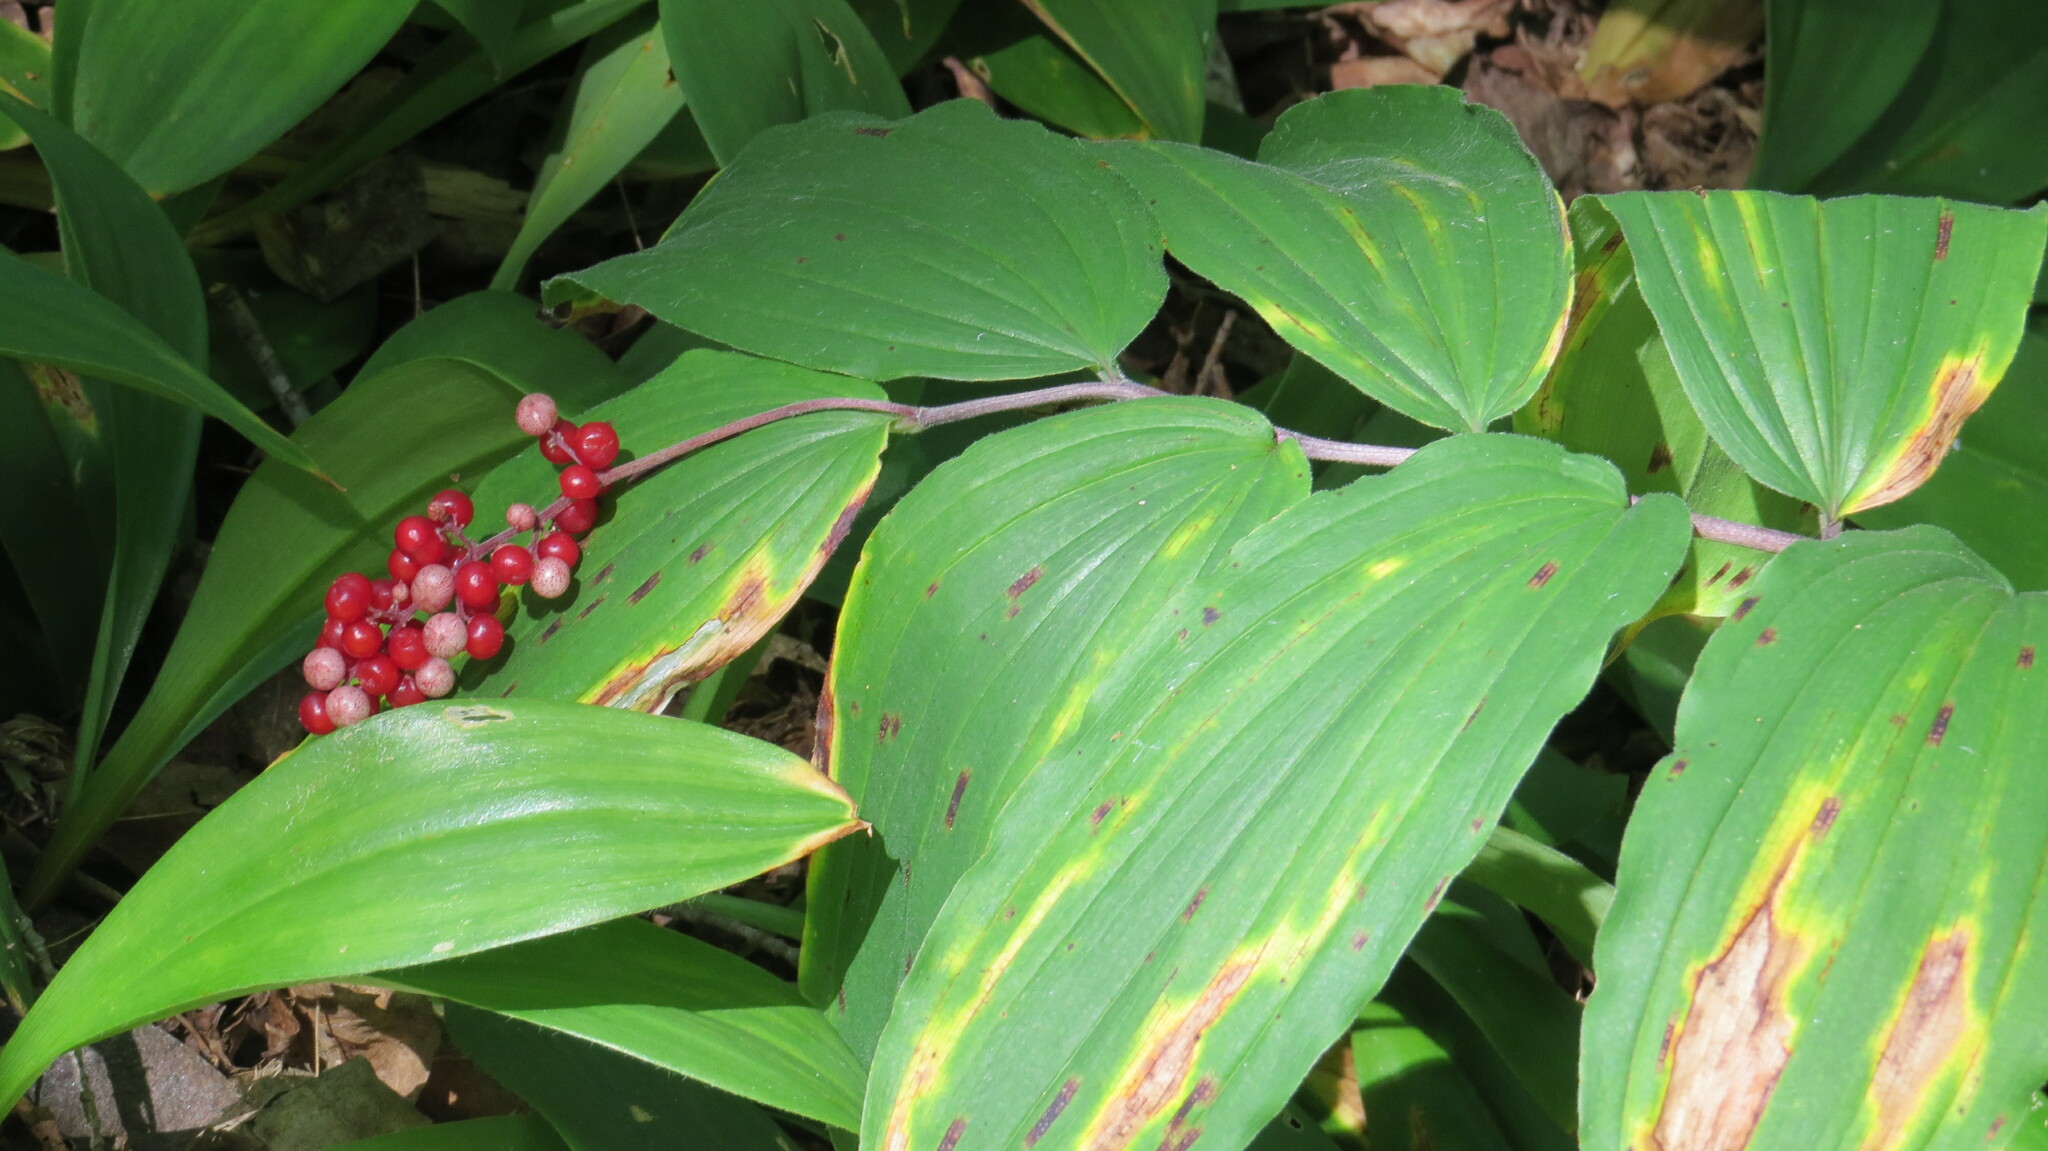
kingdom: Plantae
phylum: Tracheophyta
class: Liliopsida
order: Asparagales
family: Asparagaceae
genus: Maianthemum
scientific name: Maianthemum racemosum
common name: False spikenard
